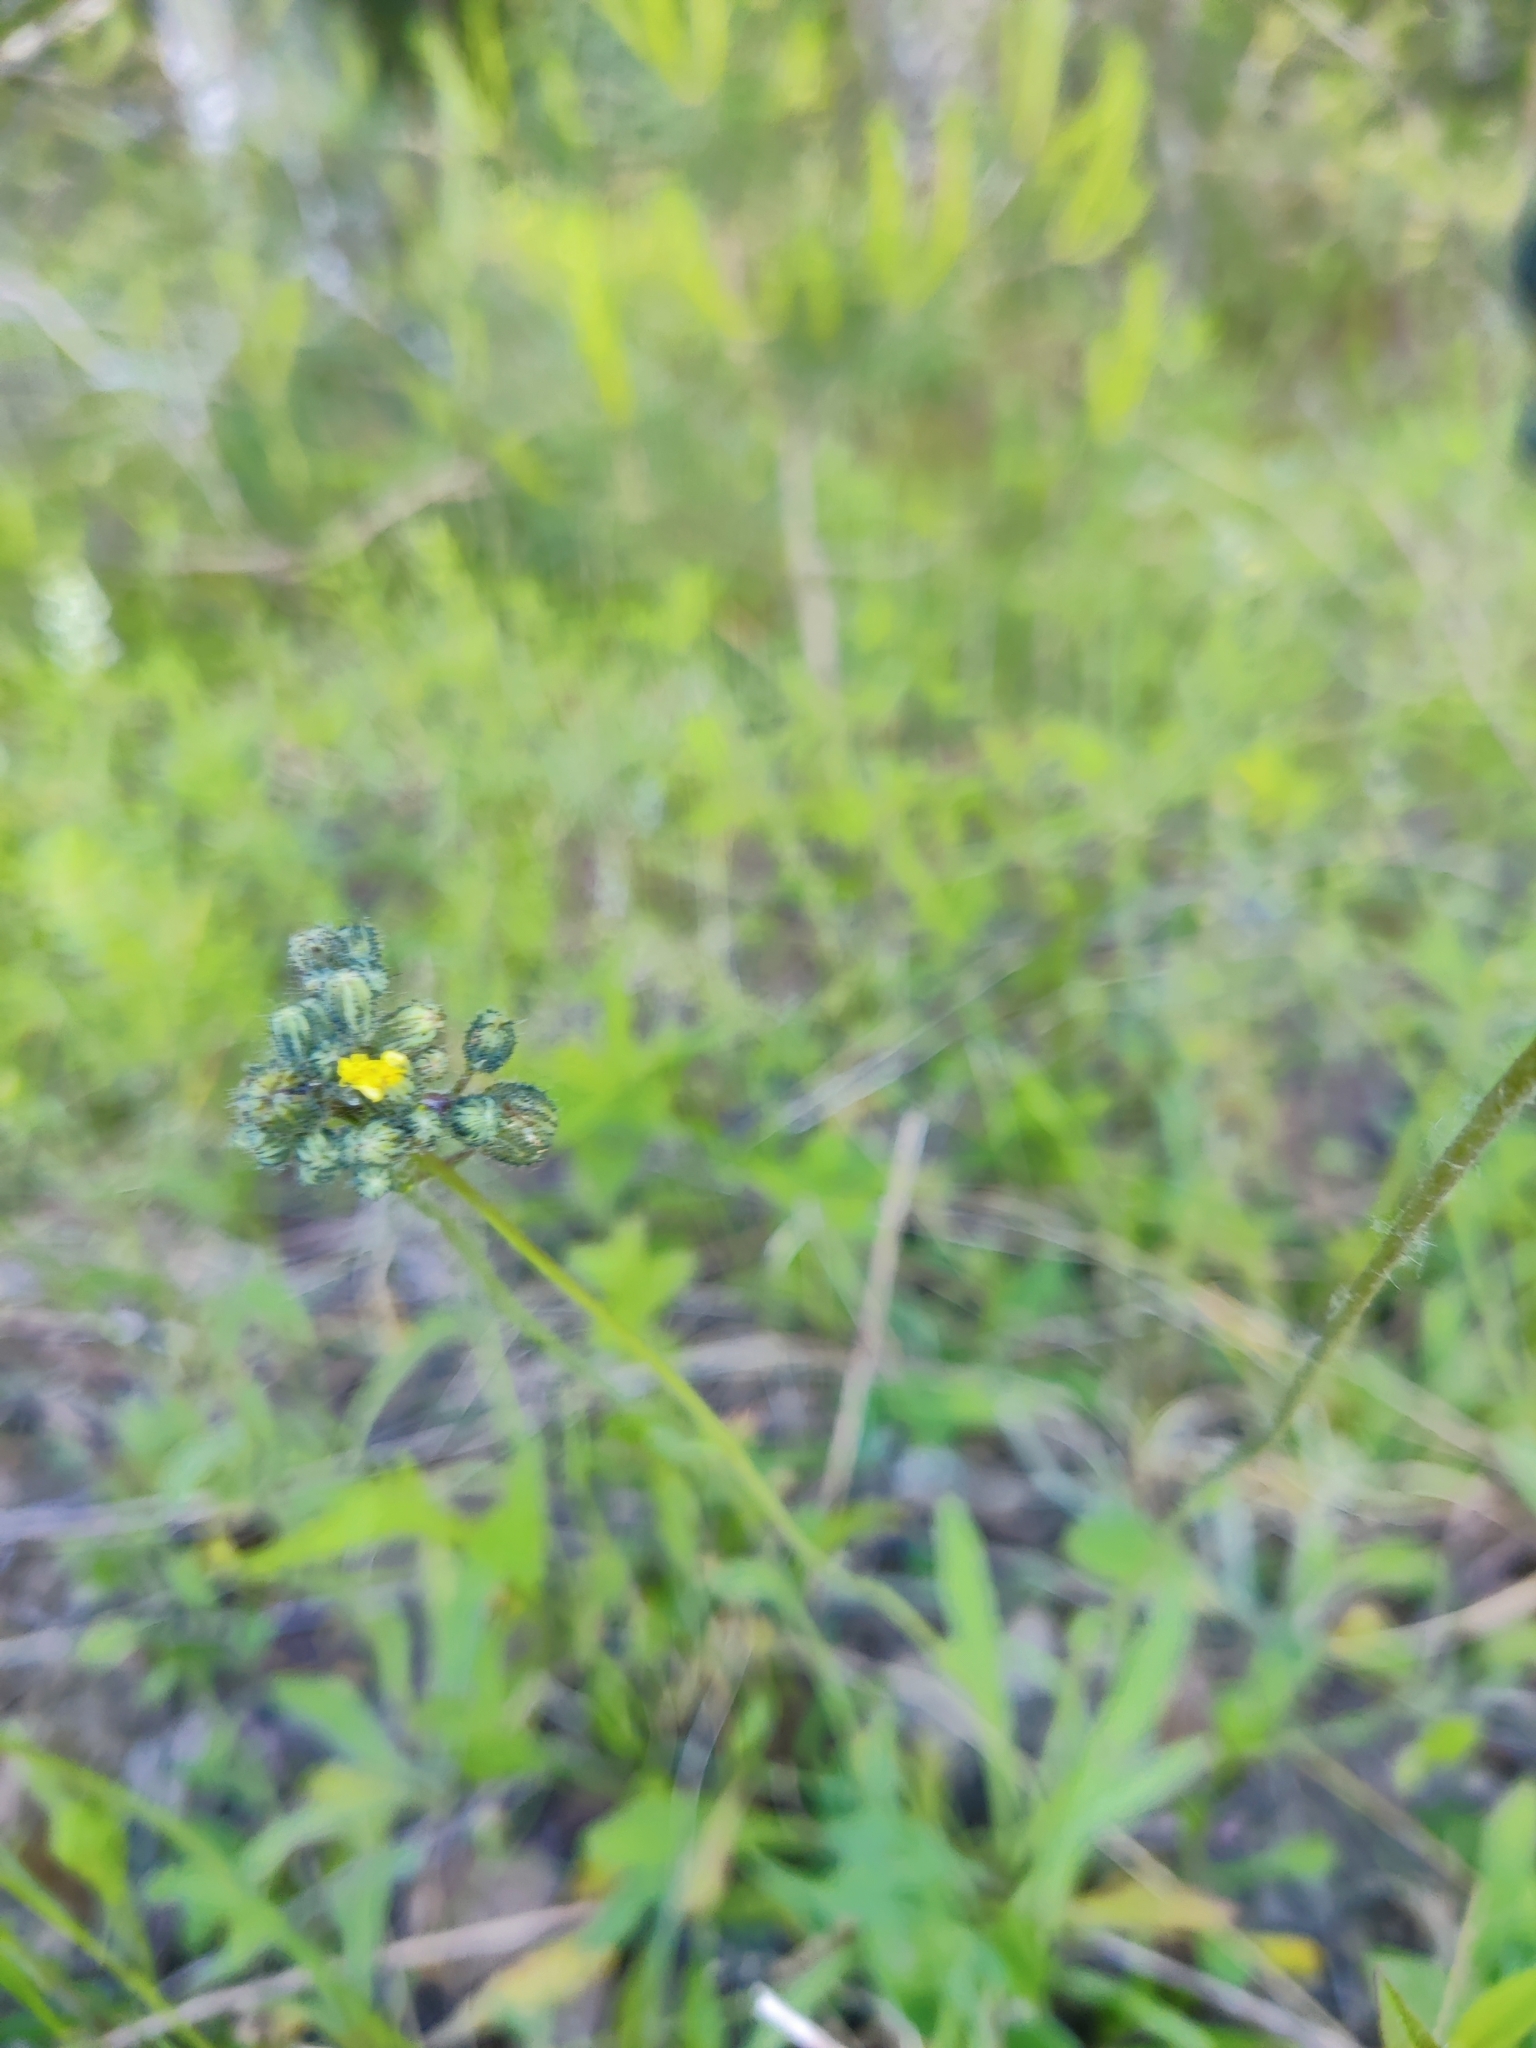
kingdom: Plantae
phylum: Tracheophyta
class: Magnoliopsida
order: Asterales
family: Asteraceae
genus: Pilosella
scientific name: Pilosella
